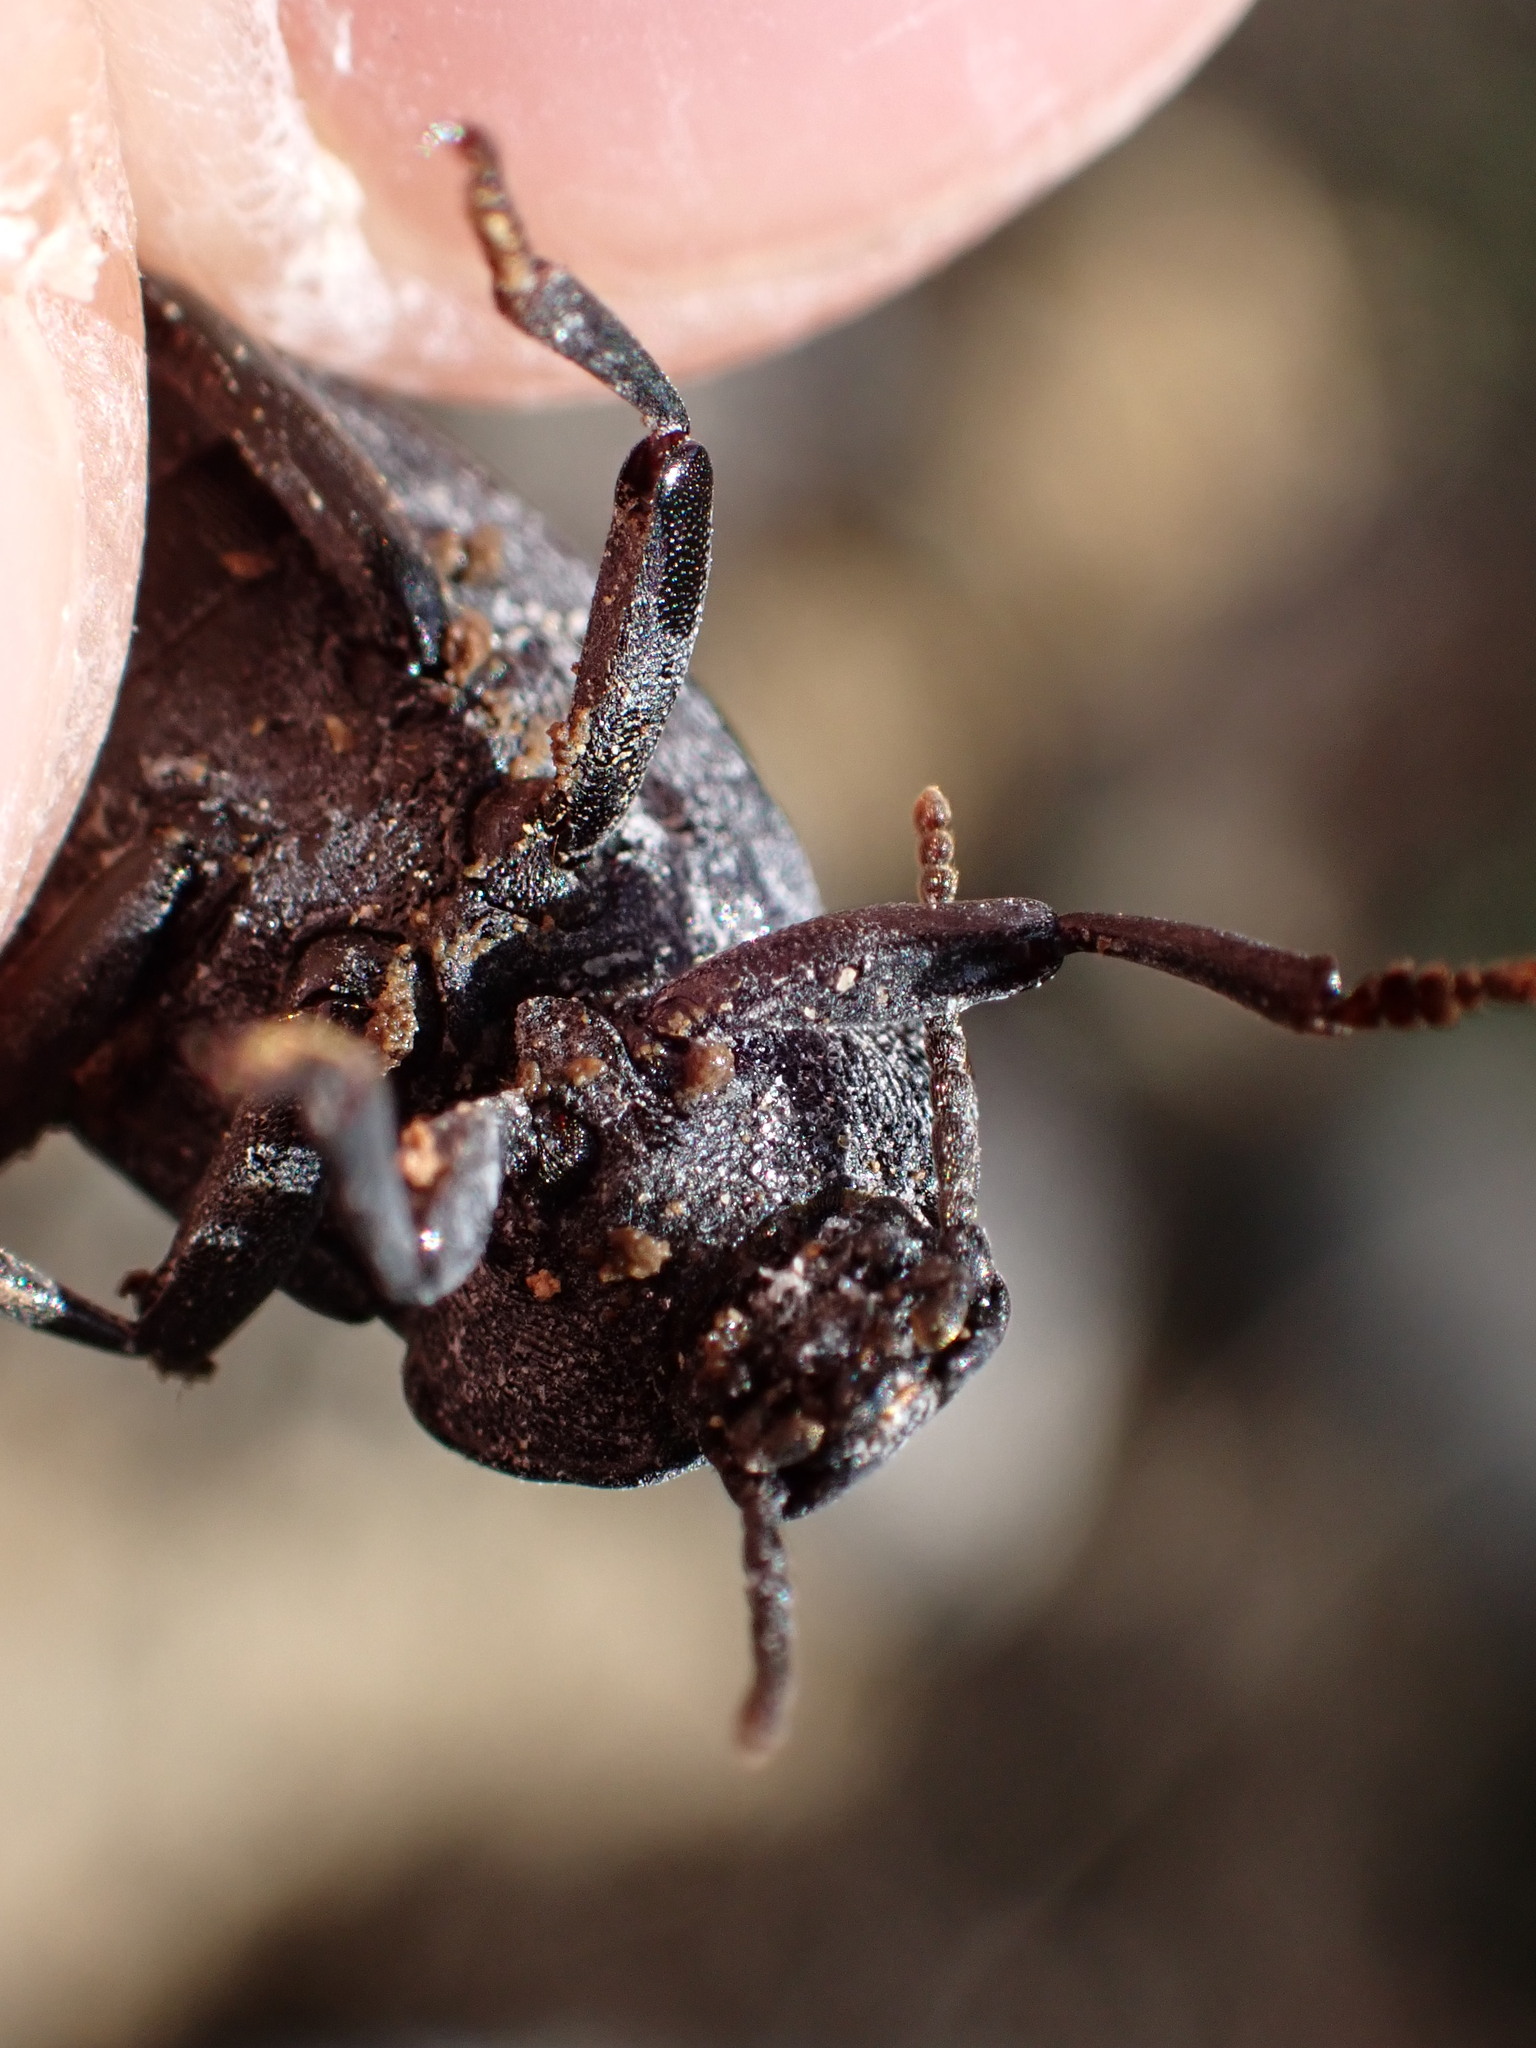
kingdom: Animalia
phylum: Arthropoda
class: Insecta
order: Coleoptera
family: Tenebrionidae
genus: Dendarus
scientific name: Dendarus coarcticollis
